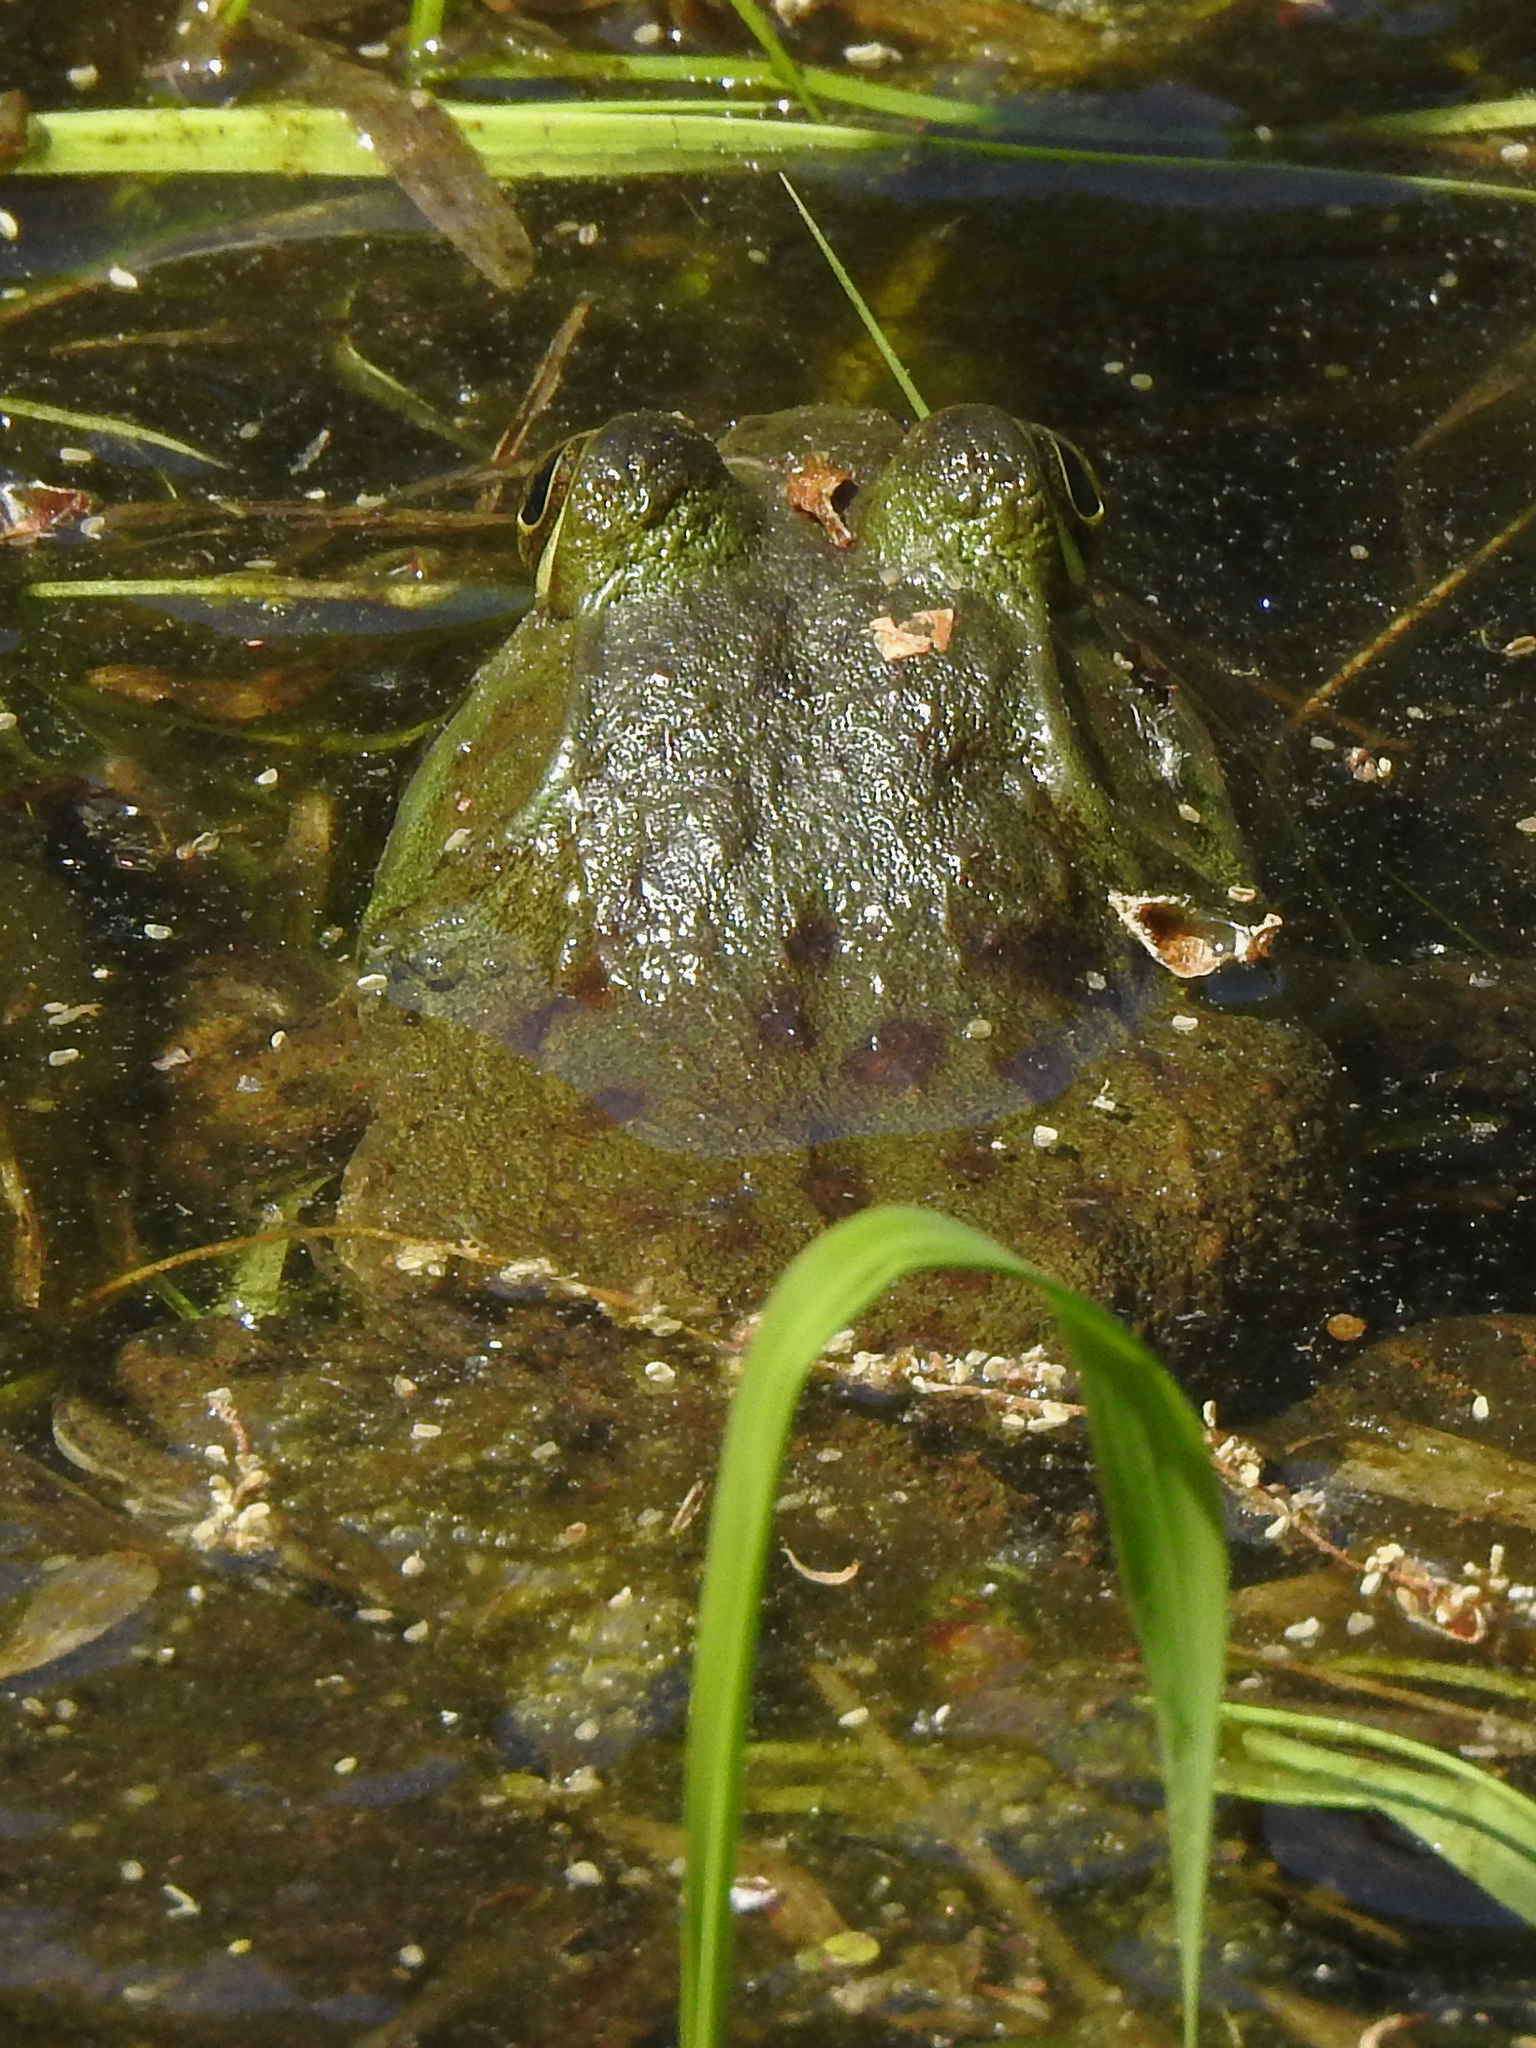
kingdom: Animalia
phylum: Chordata
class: Amphibia
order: Anura
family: Ranidae
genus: Lithobates
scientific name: Lithobates catesbeianus
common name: American bullfrog
